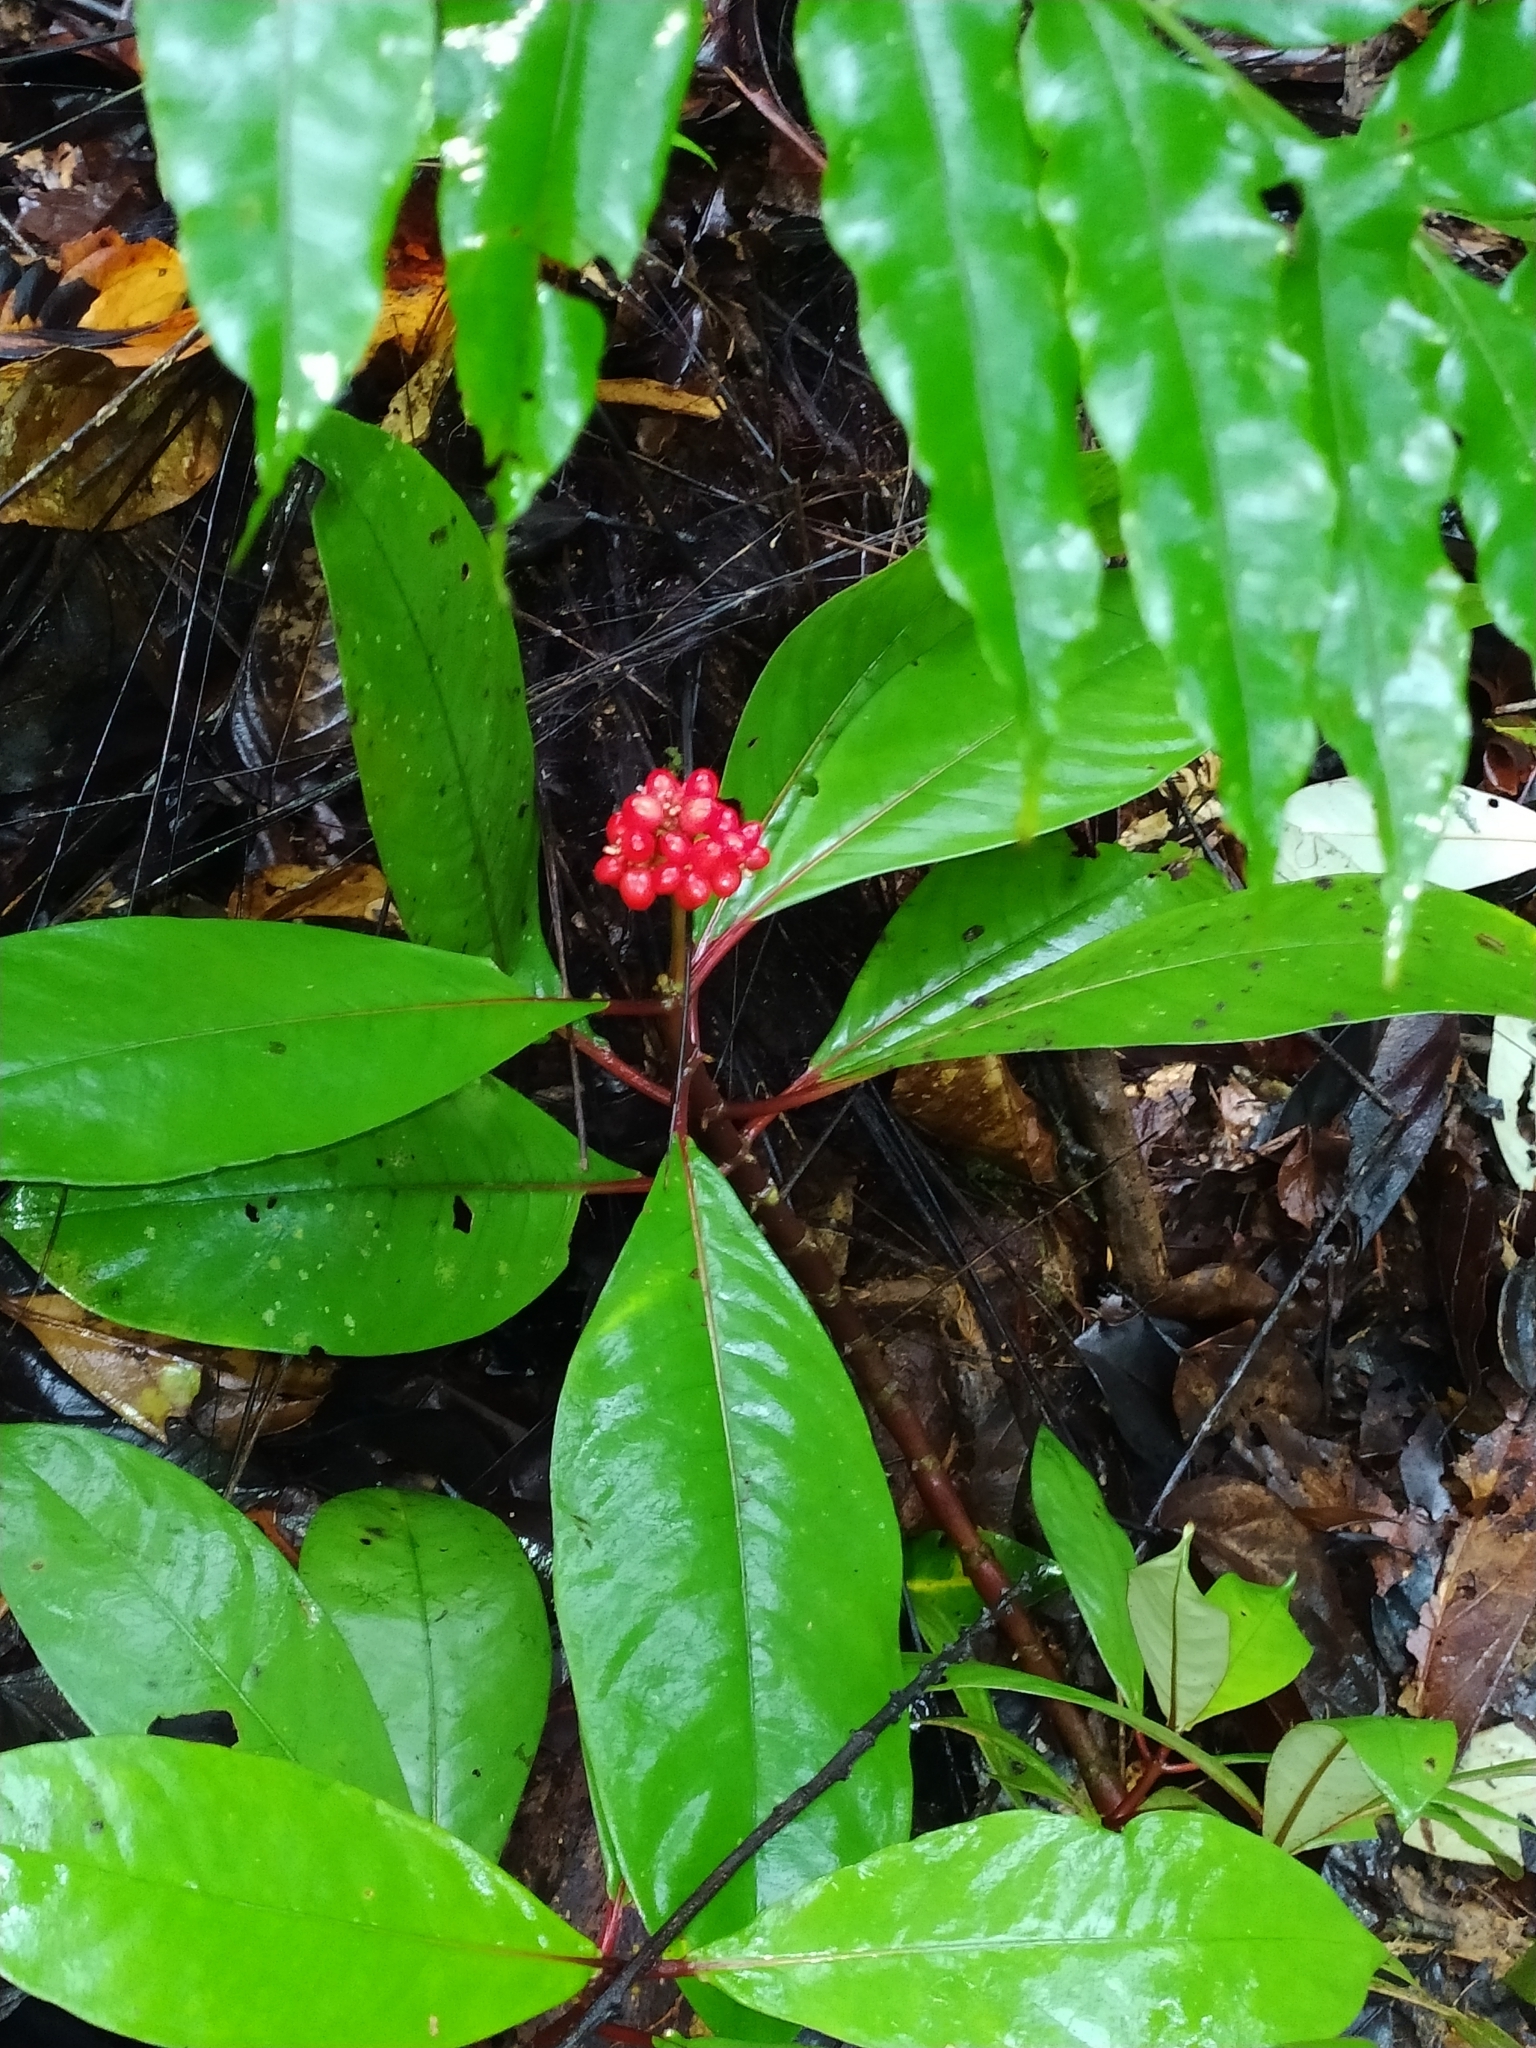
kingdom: Plantae
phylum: Tracheophyta
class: Magnoliopsida
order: Gentianales
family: Rubiaceae
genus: Notopleura
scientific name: Notopleura uliginosa
